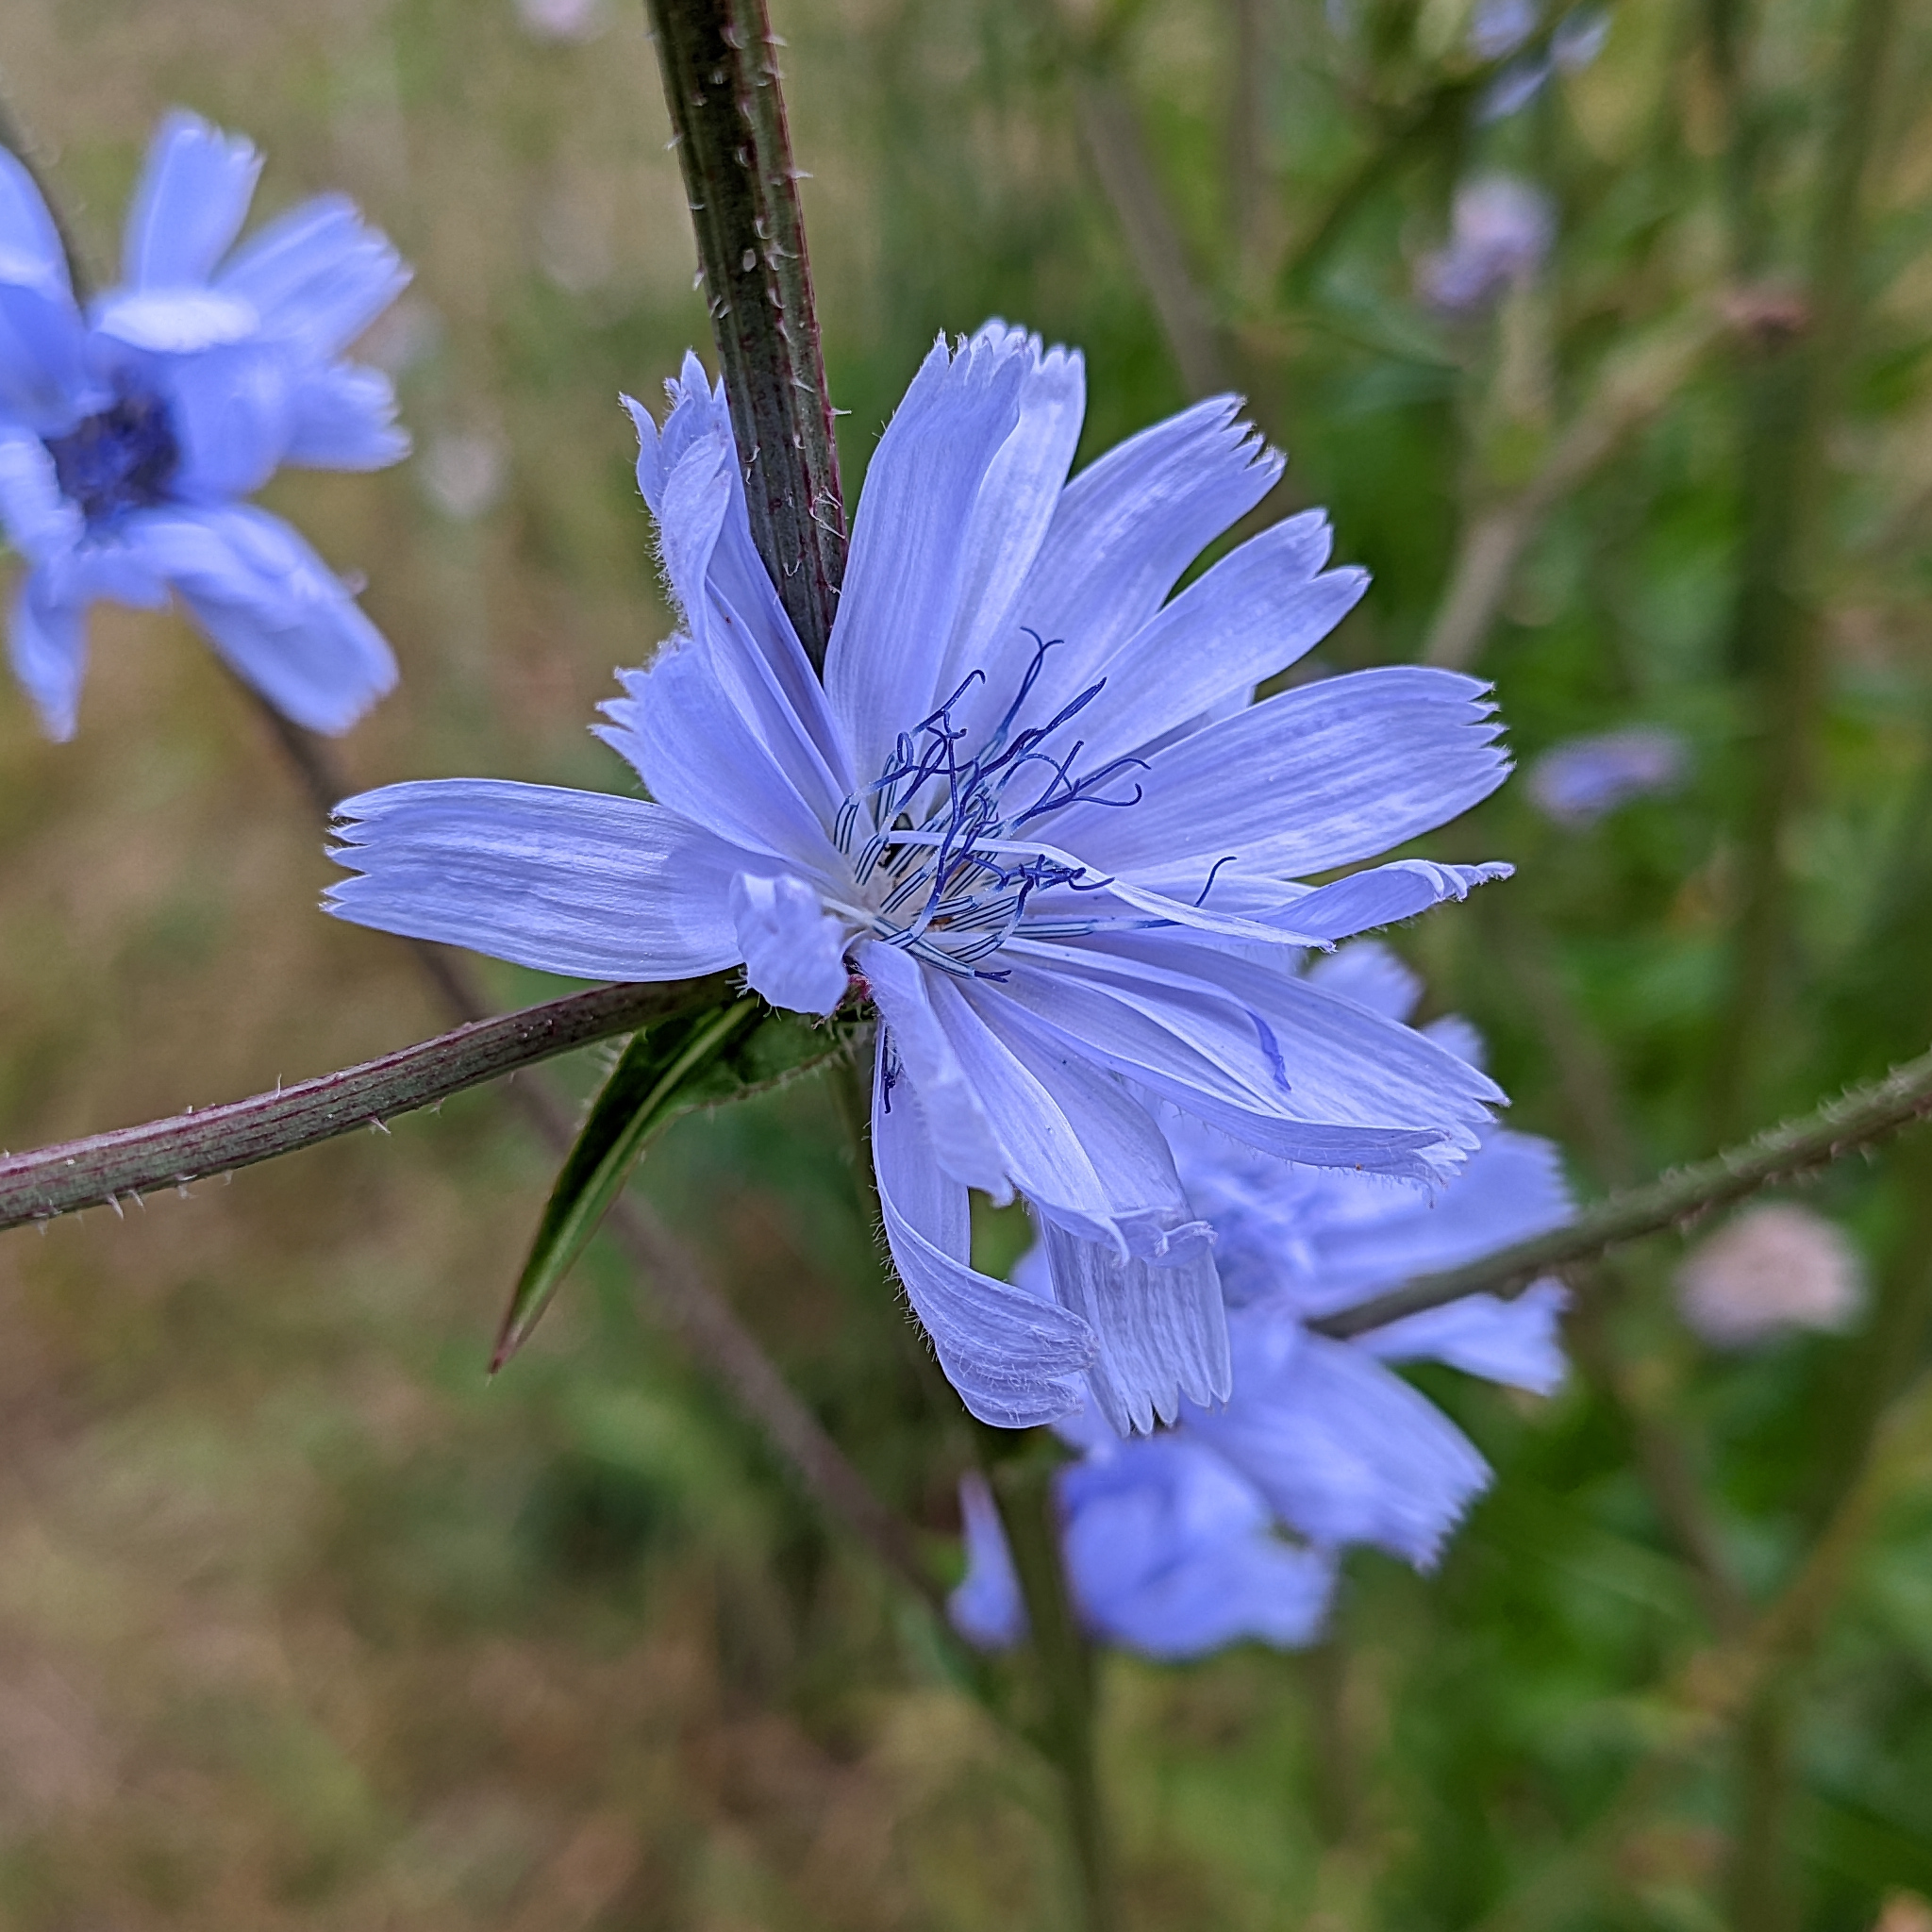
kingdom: Plantae
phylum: Tracheophyta
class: Magnoliopsida
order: Asterales
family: Asteraceae
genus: Cichorium
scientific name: Cichorium intybus
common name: Chicory
